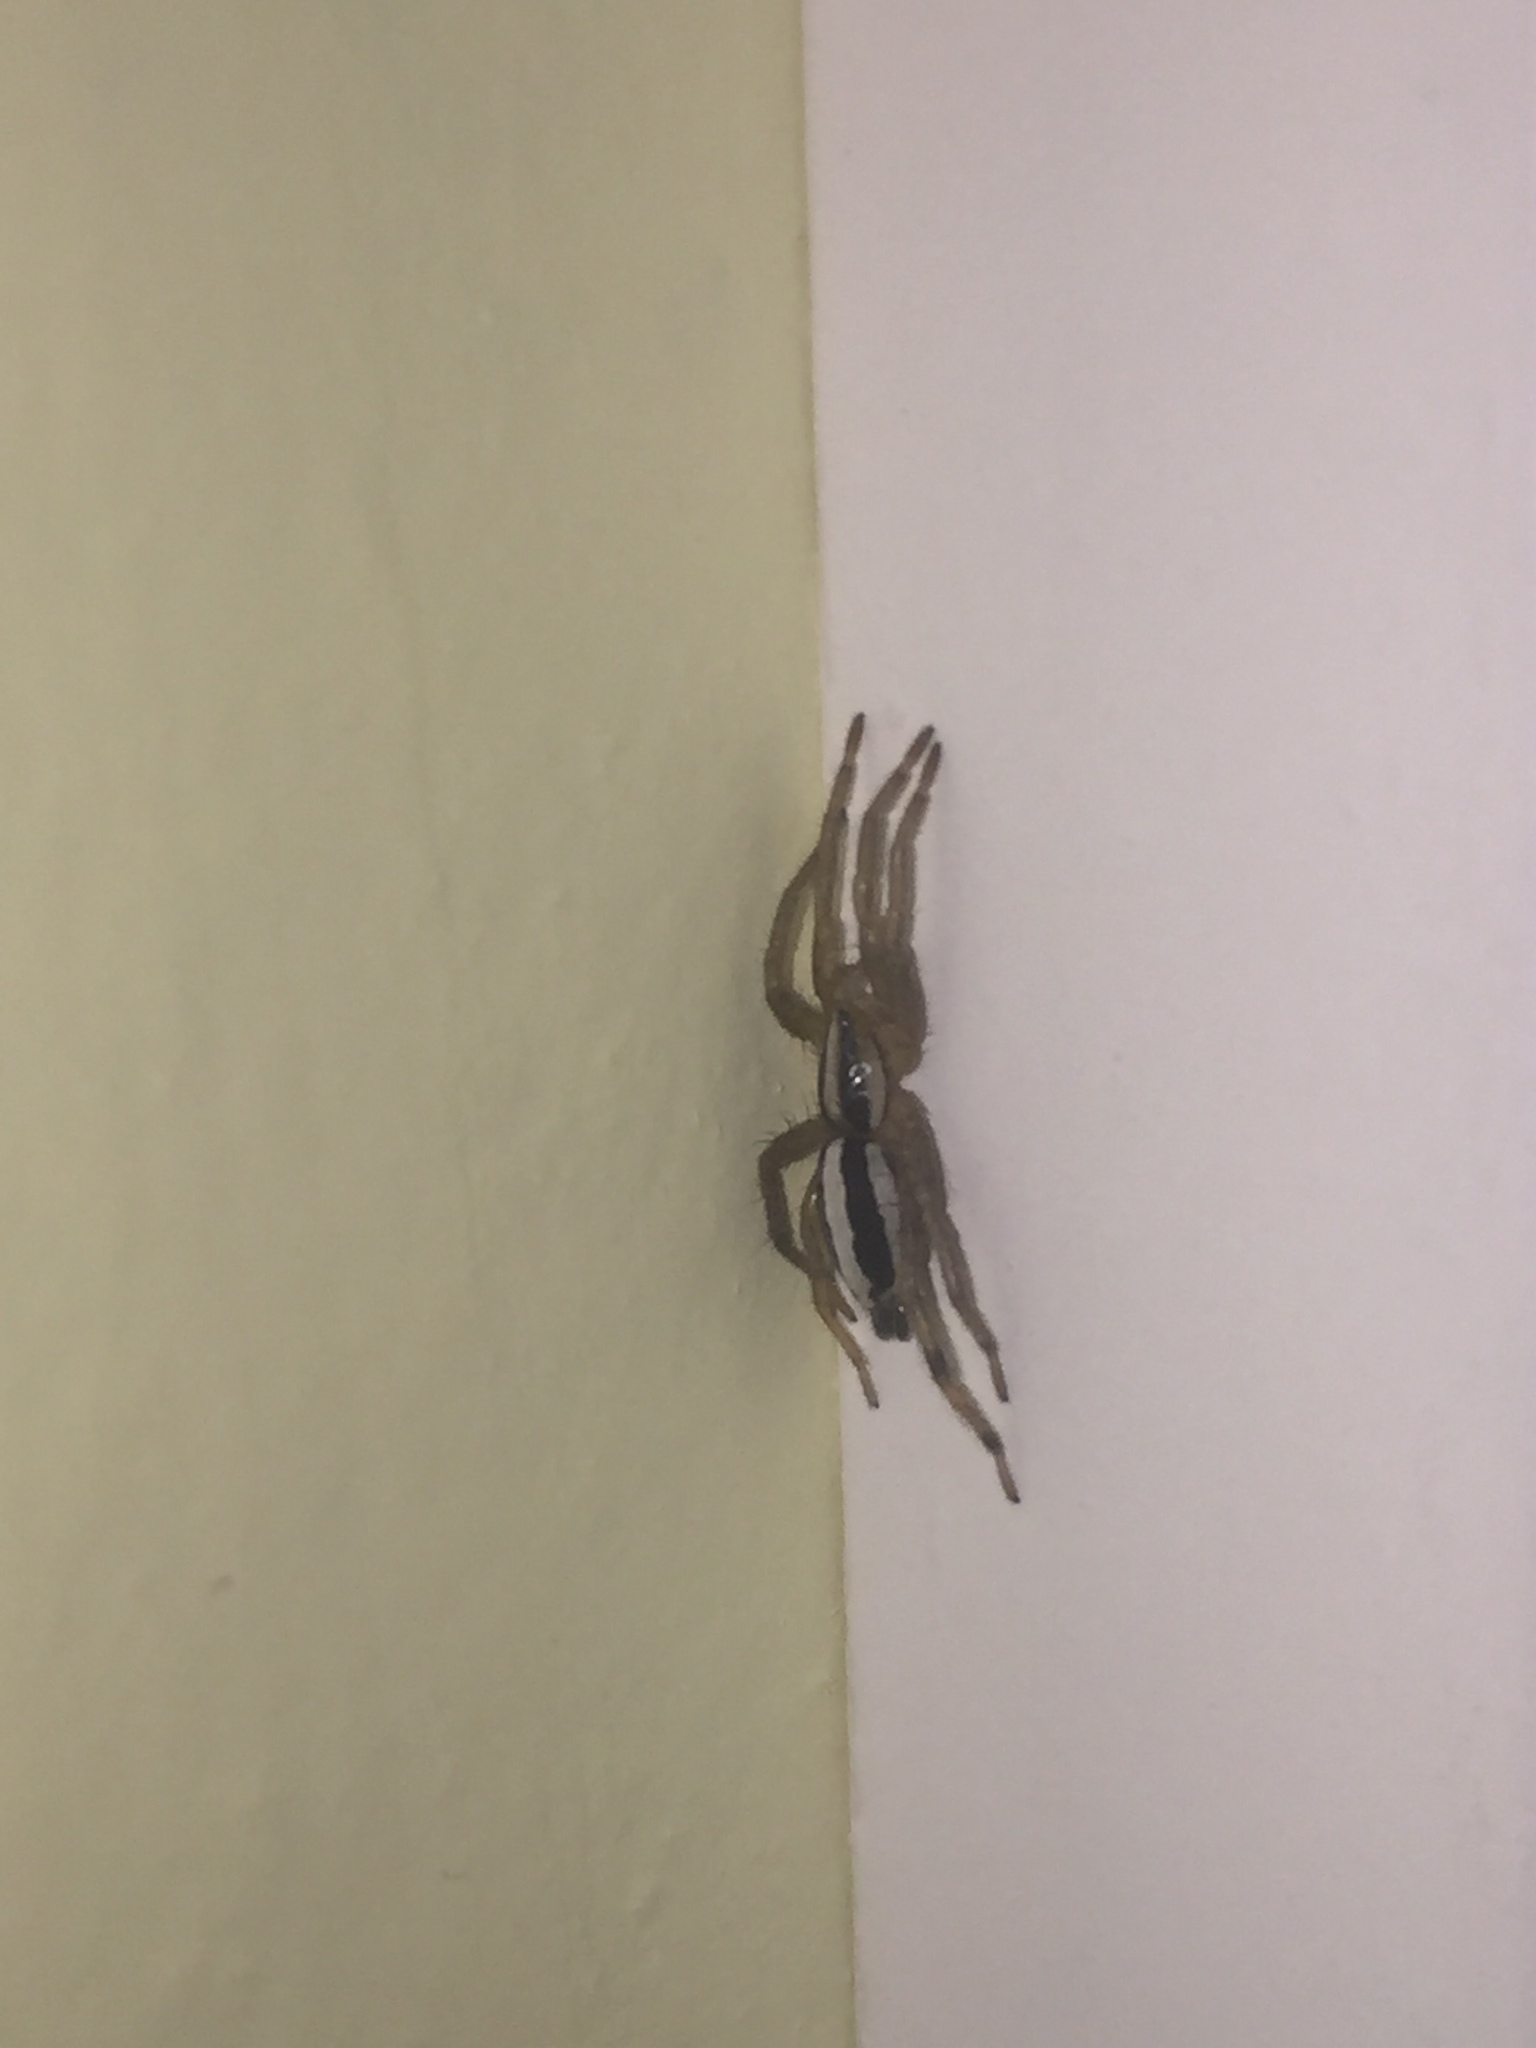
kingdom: Animalia
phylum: Arthropoda
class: Arachnida
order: Araneae
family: Gnaphosidae
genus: Cesonia
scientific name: Cesonia bilineata
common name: Two-lined stealthy ground spider
